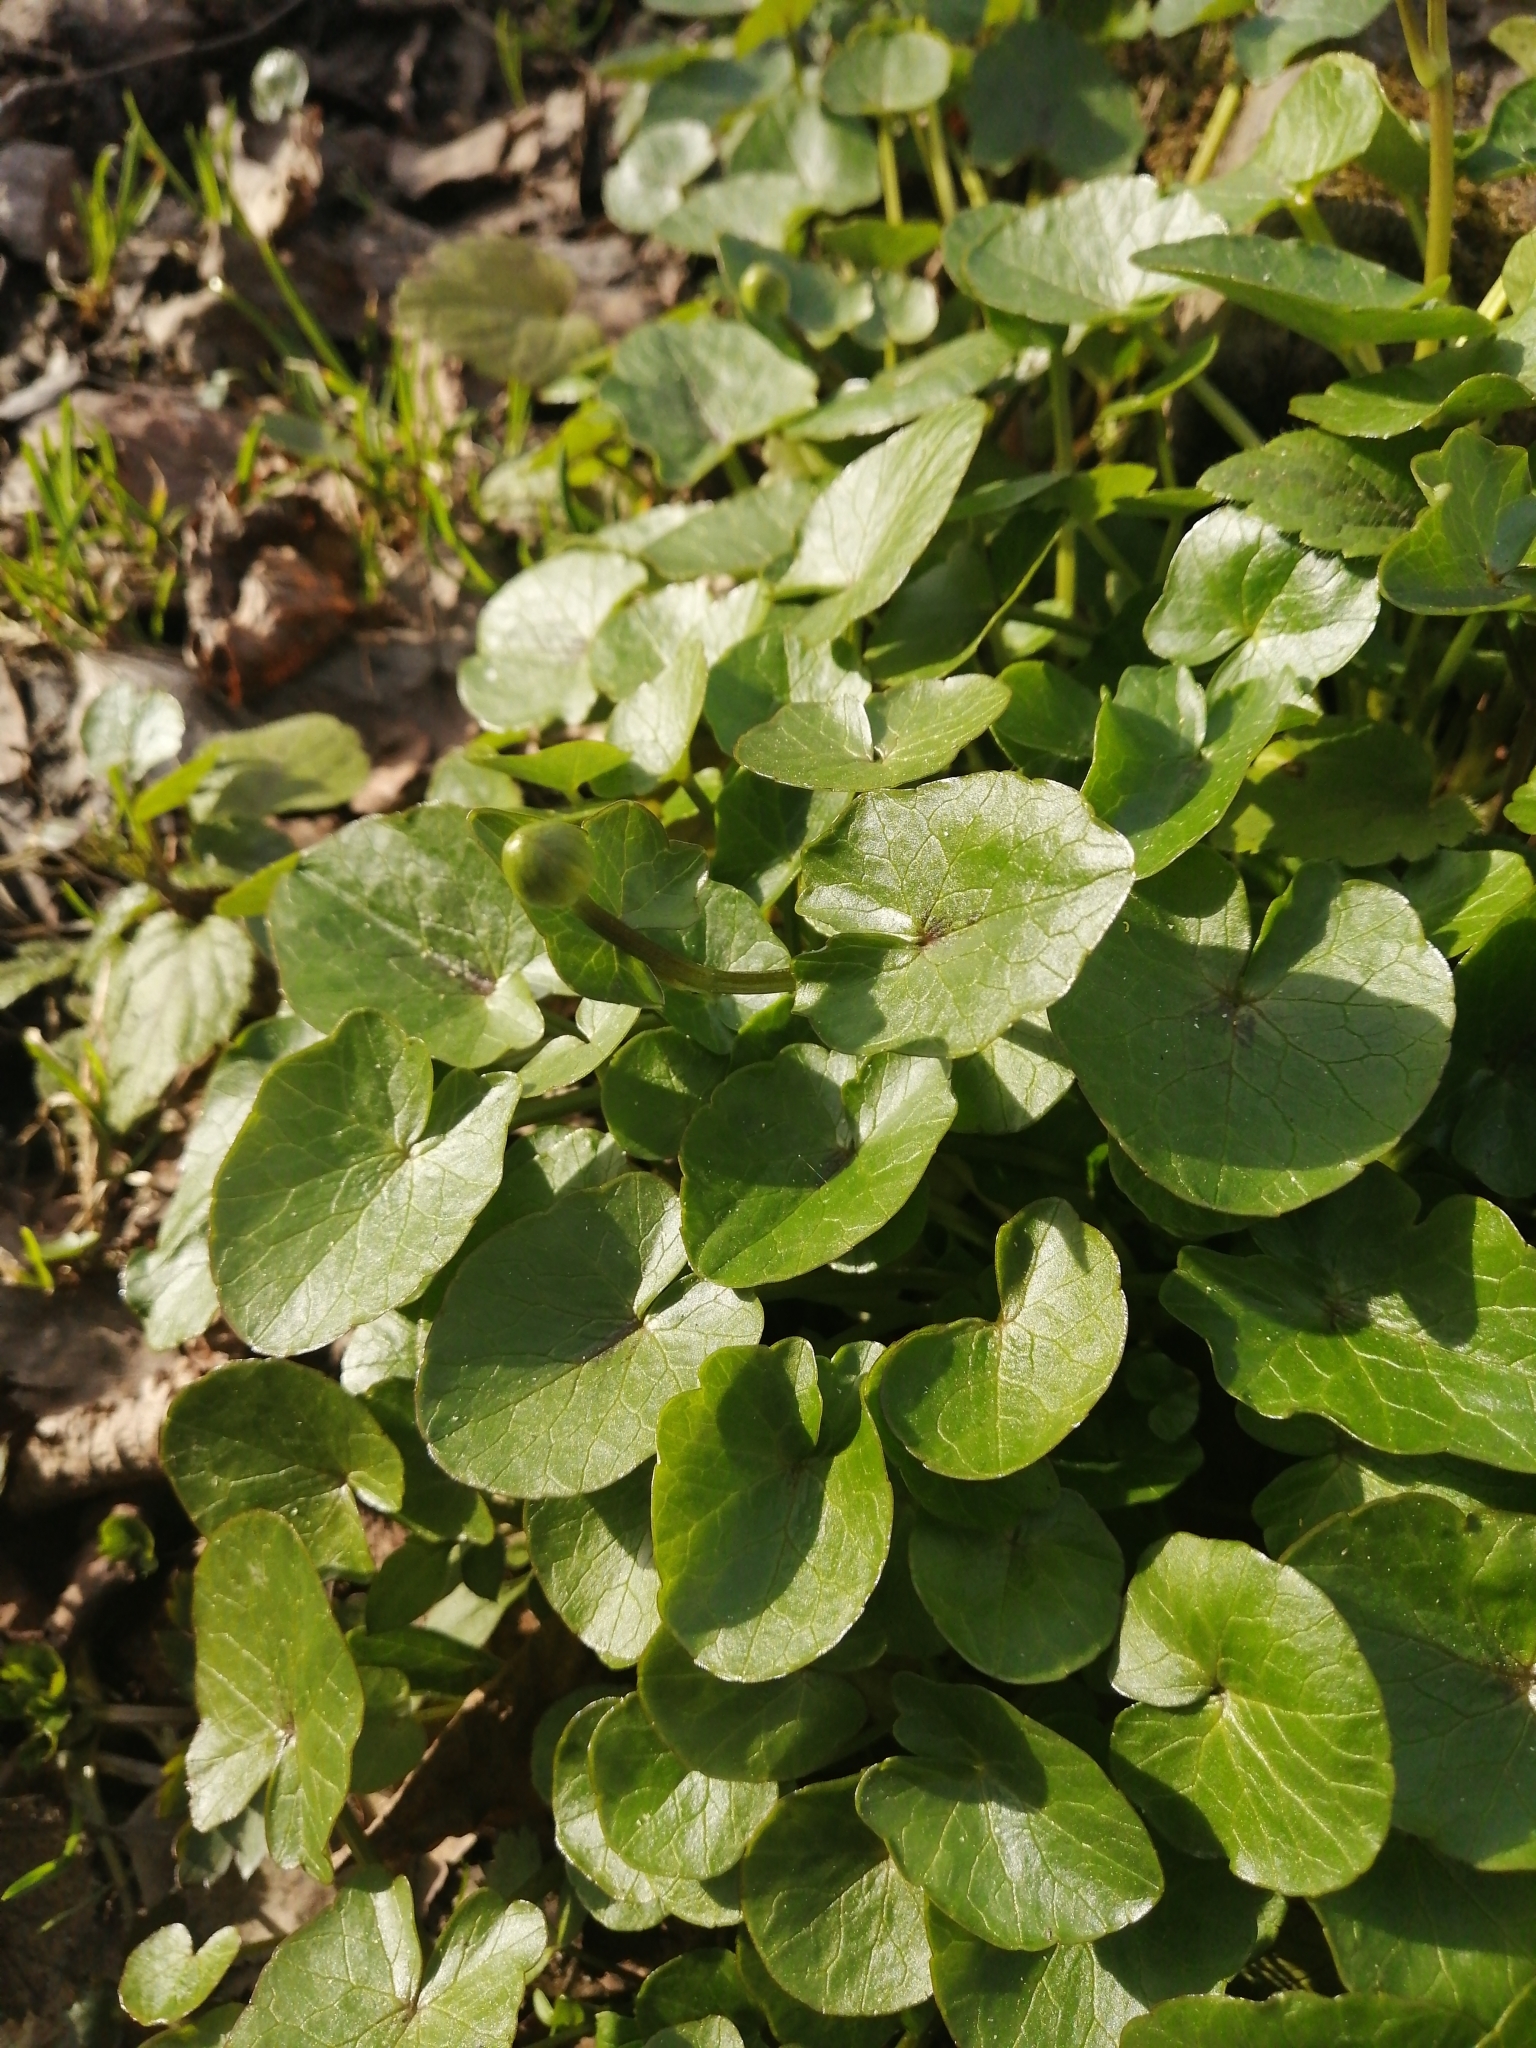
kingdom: Plantae
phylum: Tracheophyta
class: Magnoliopsida
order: Ranunculales
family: Ranunculaceae
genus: Ficaria
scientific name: Ficaria verna
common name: Lesser celandine
